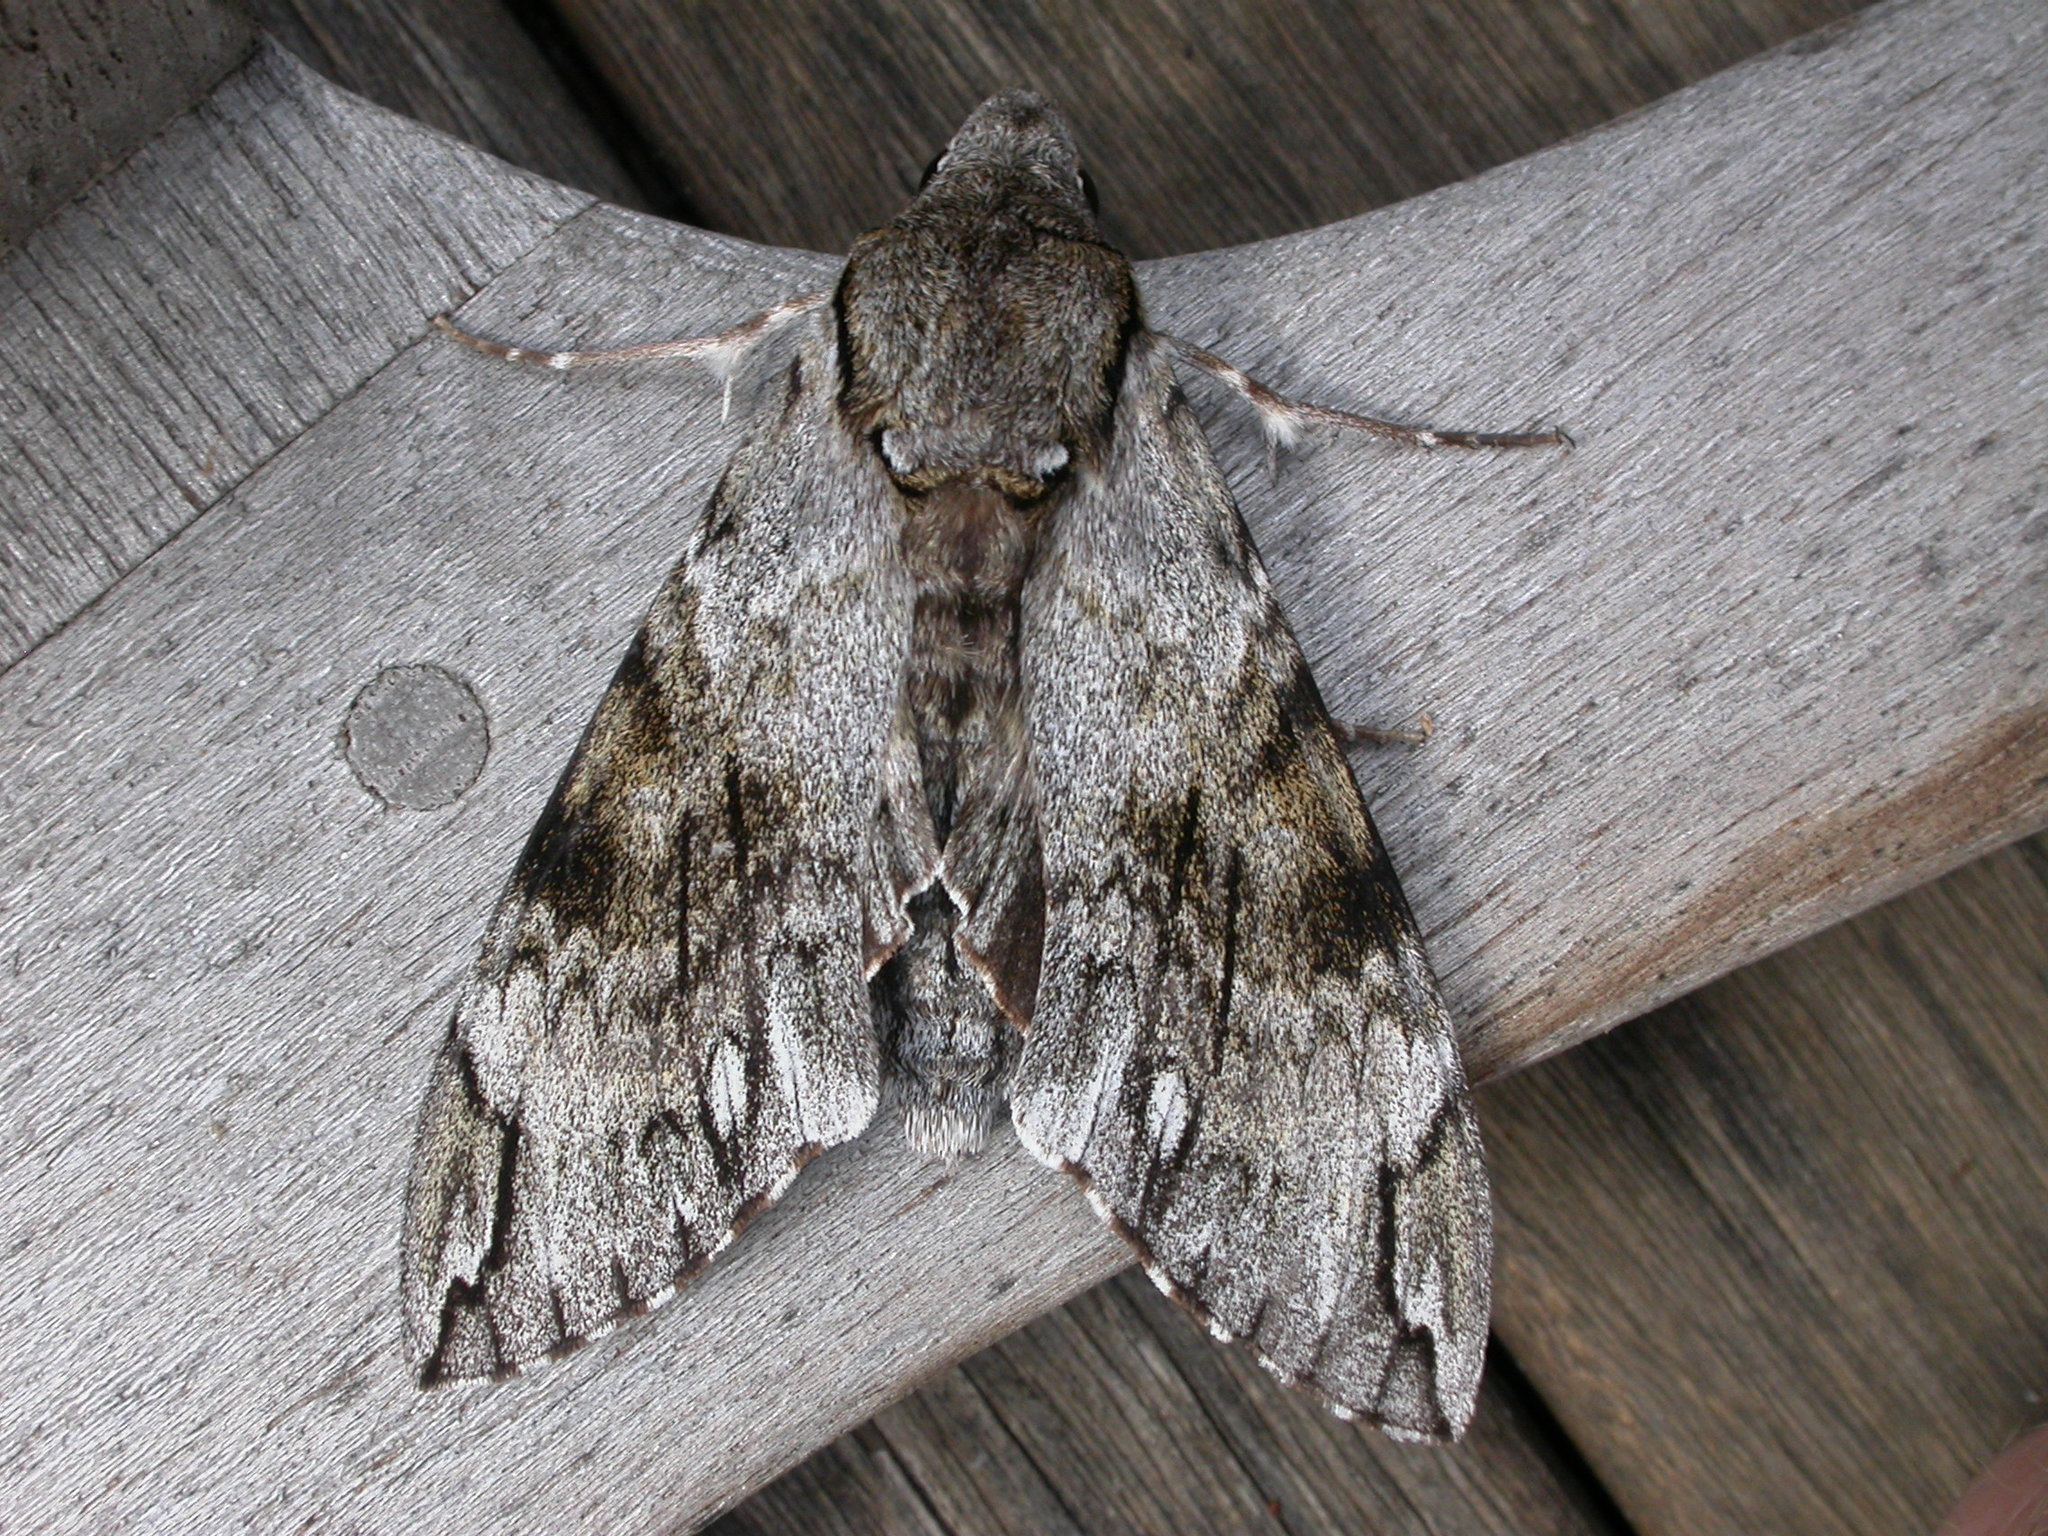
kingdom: Animalia
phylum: Arthropoda
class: Insecta
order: Lepidoptera
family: Sphingidae
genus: Psilogramma
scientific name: Psilogramma casuarinae
